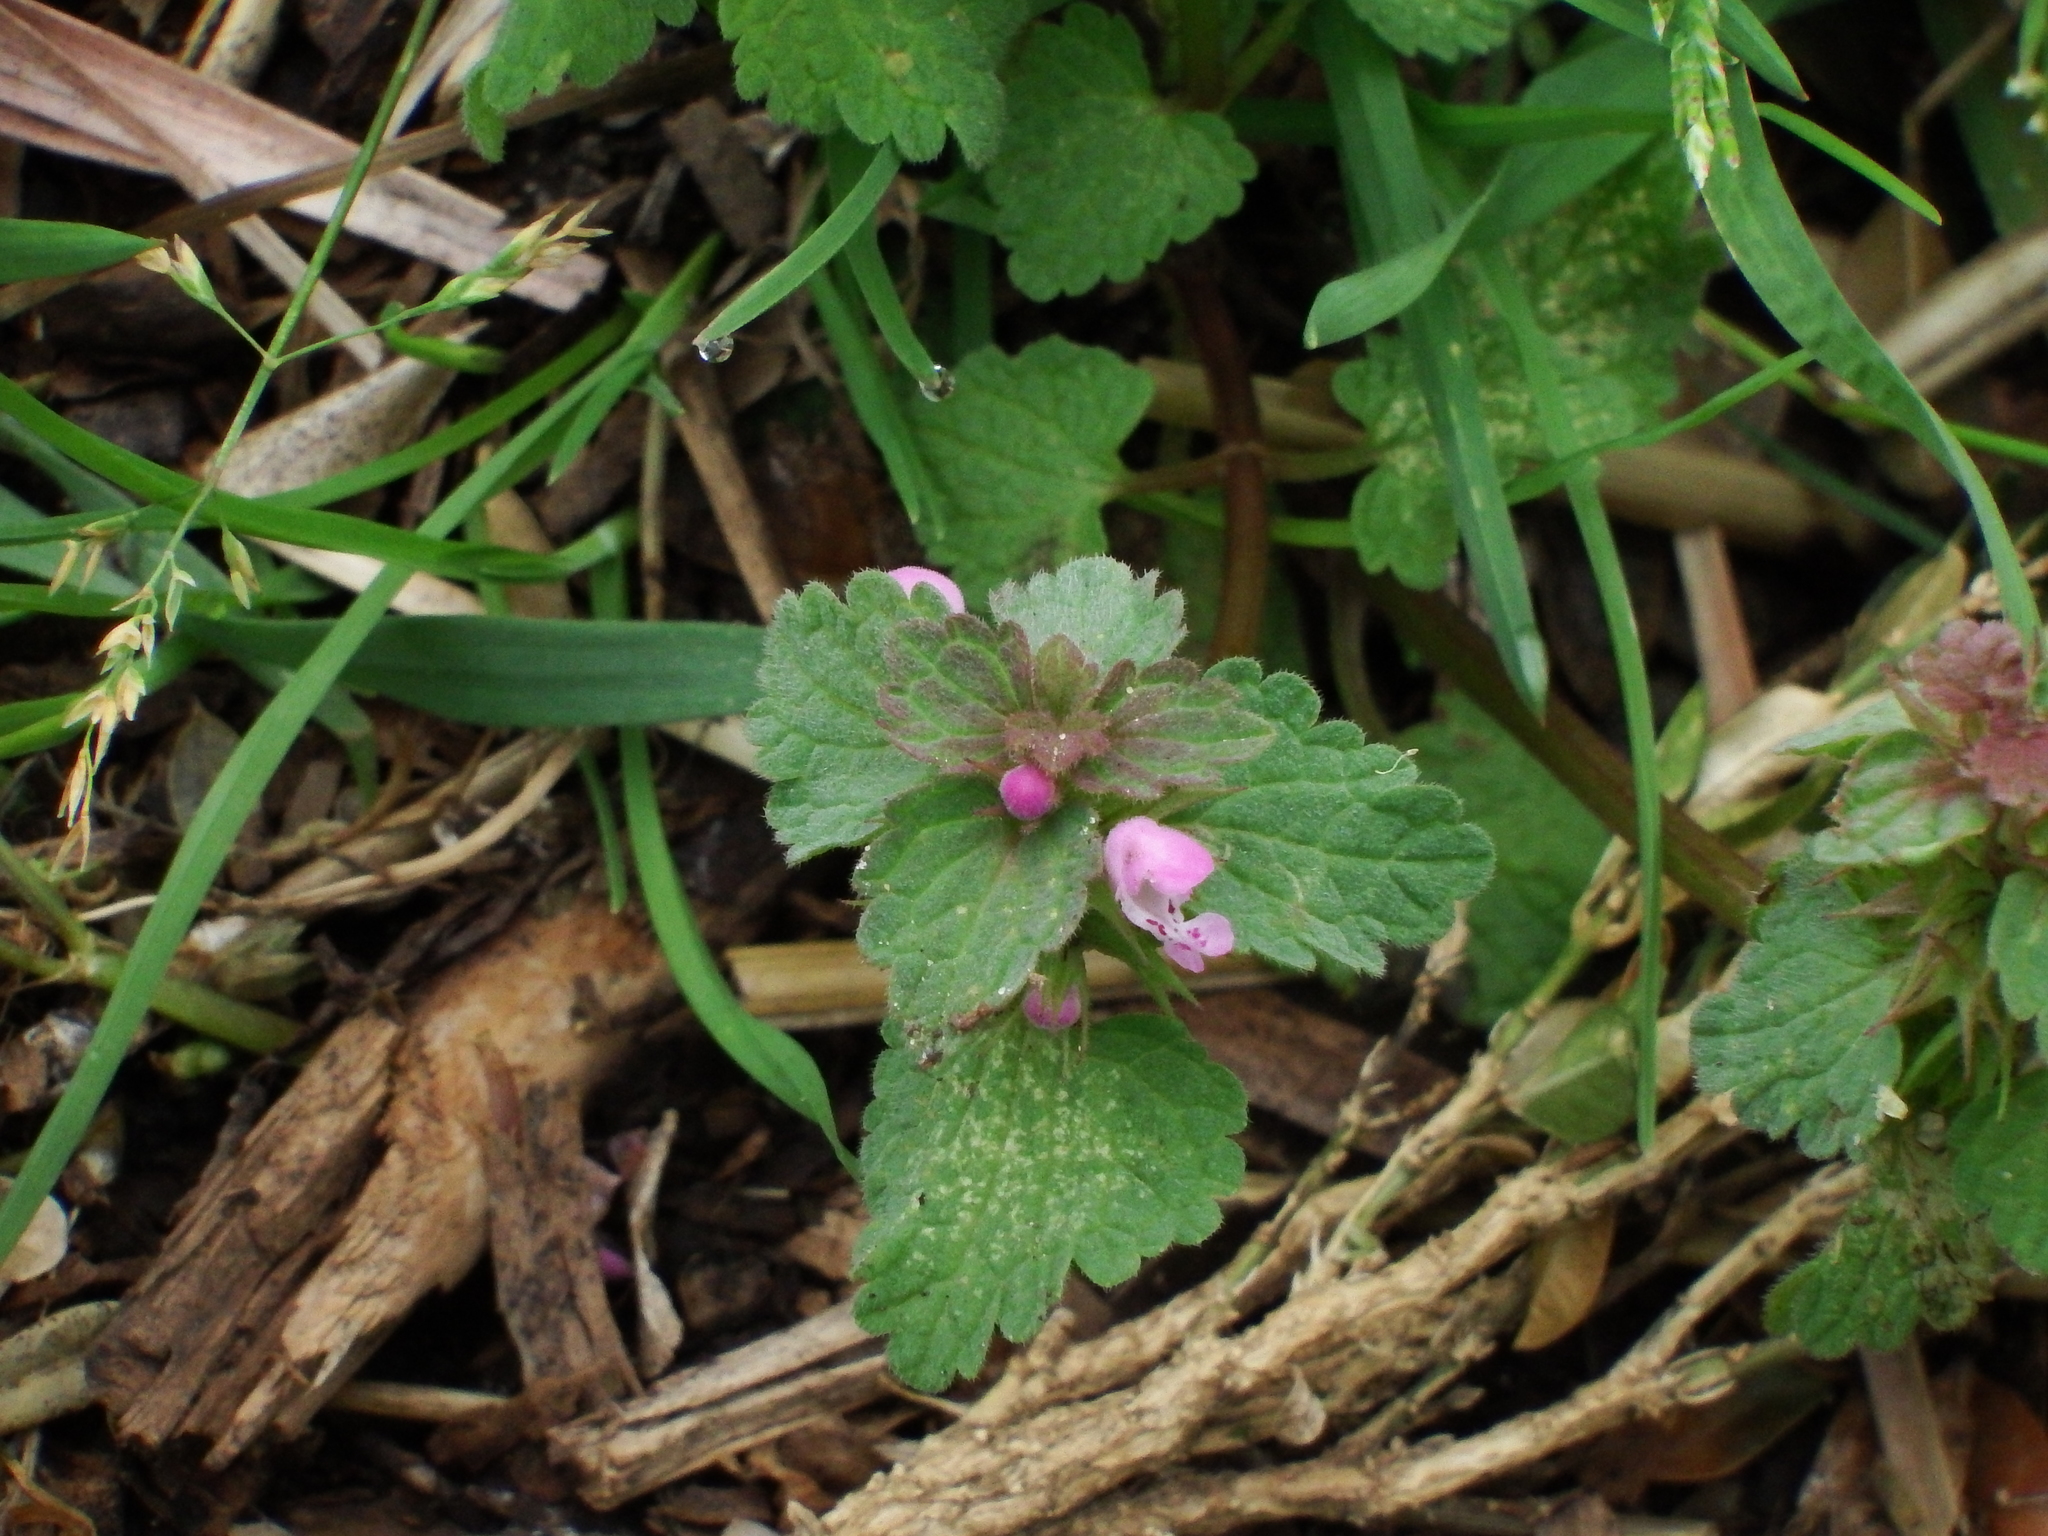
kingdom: Plantae
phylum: Tracheophyta
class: Magnoliopsida
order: Lamiales
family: Lamiaceae
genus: Lamium
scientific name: Lamium purpureum
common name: Red dead-nettle
